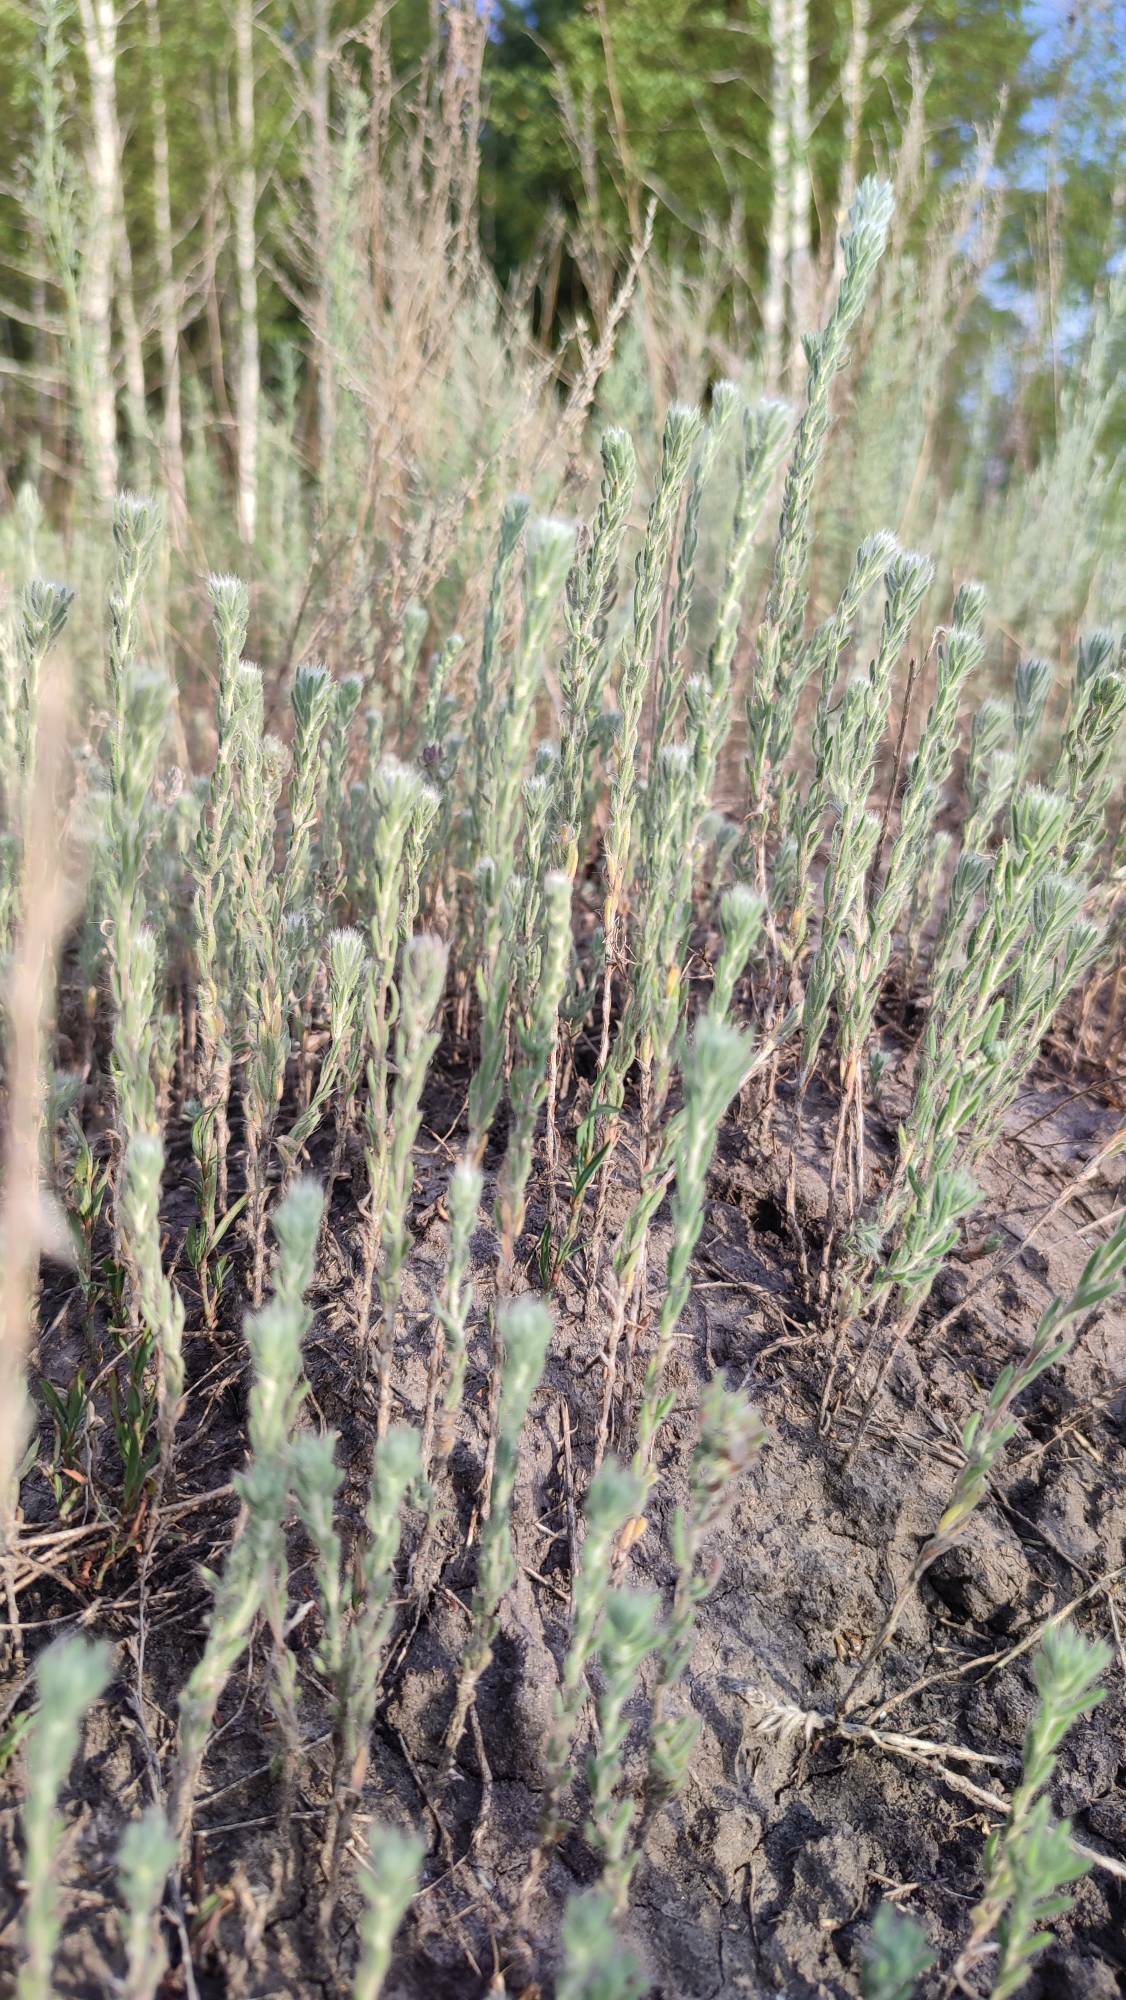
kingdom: Plantae
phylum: Tracheophyta
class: Magnoliopsida
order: Caryophyllales
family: Amaranthaceae
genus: Sedobassia
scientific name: Sedobassia sedoides
